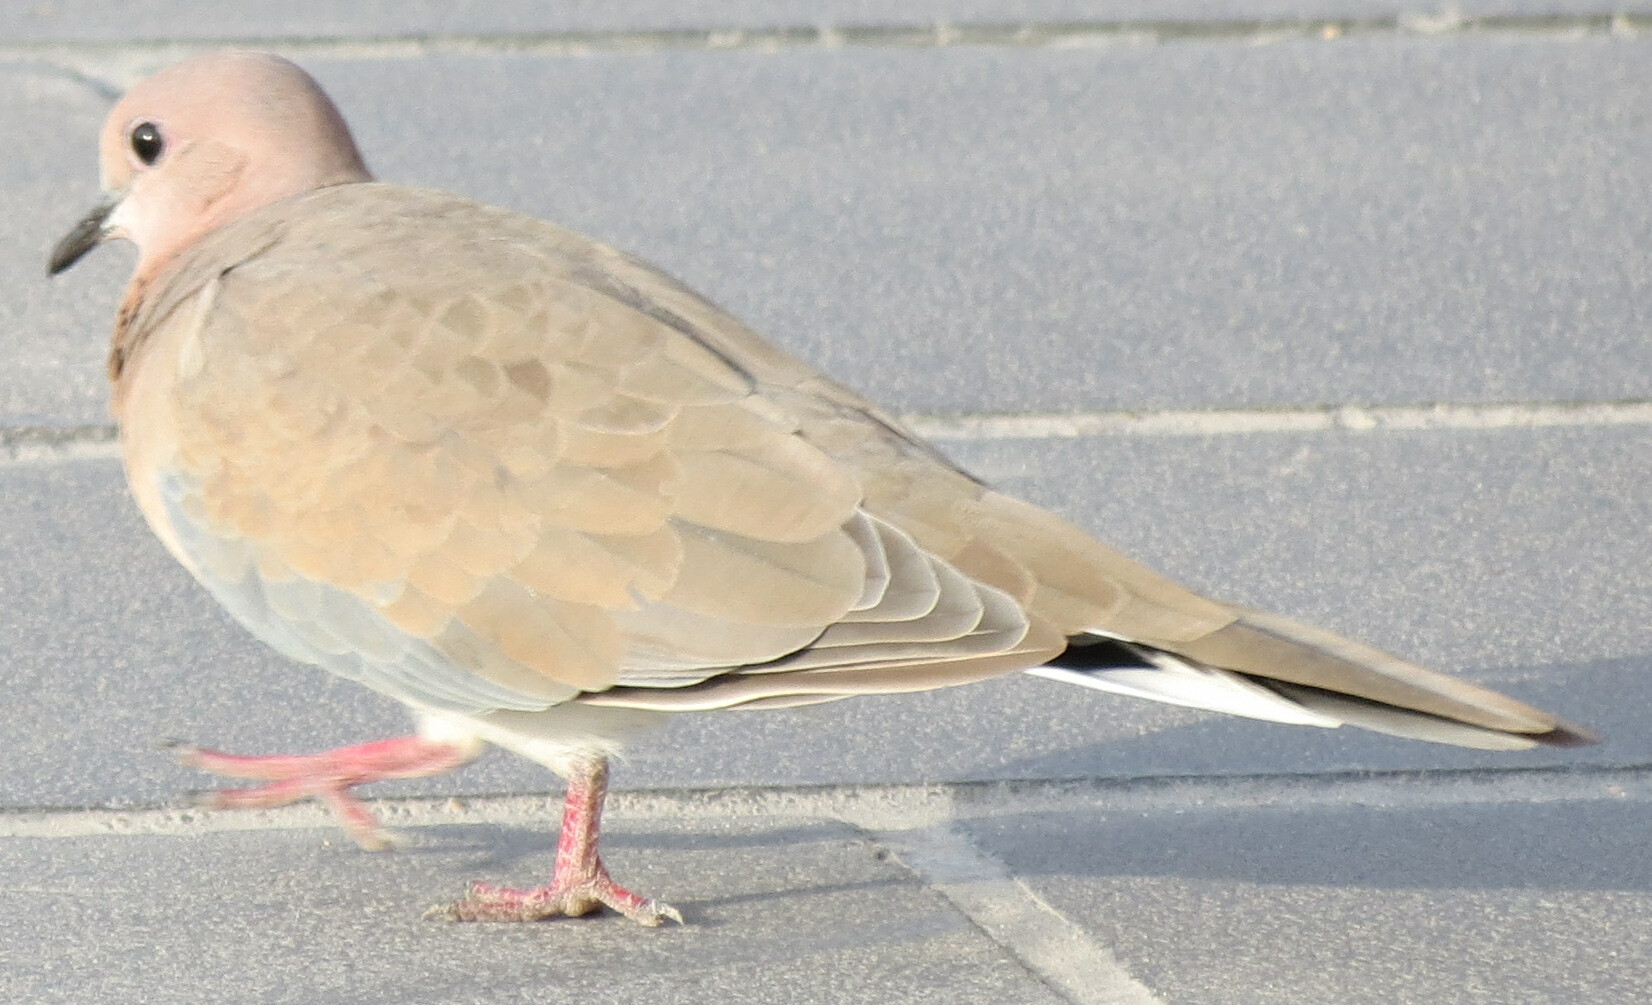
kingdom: Animalia
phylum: Chordata
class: Aves
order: Columbiformes
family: Columbidae
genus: Spilopelia
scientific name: Spilopelia senegalensis
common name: Laughing dove
